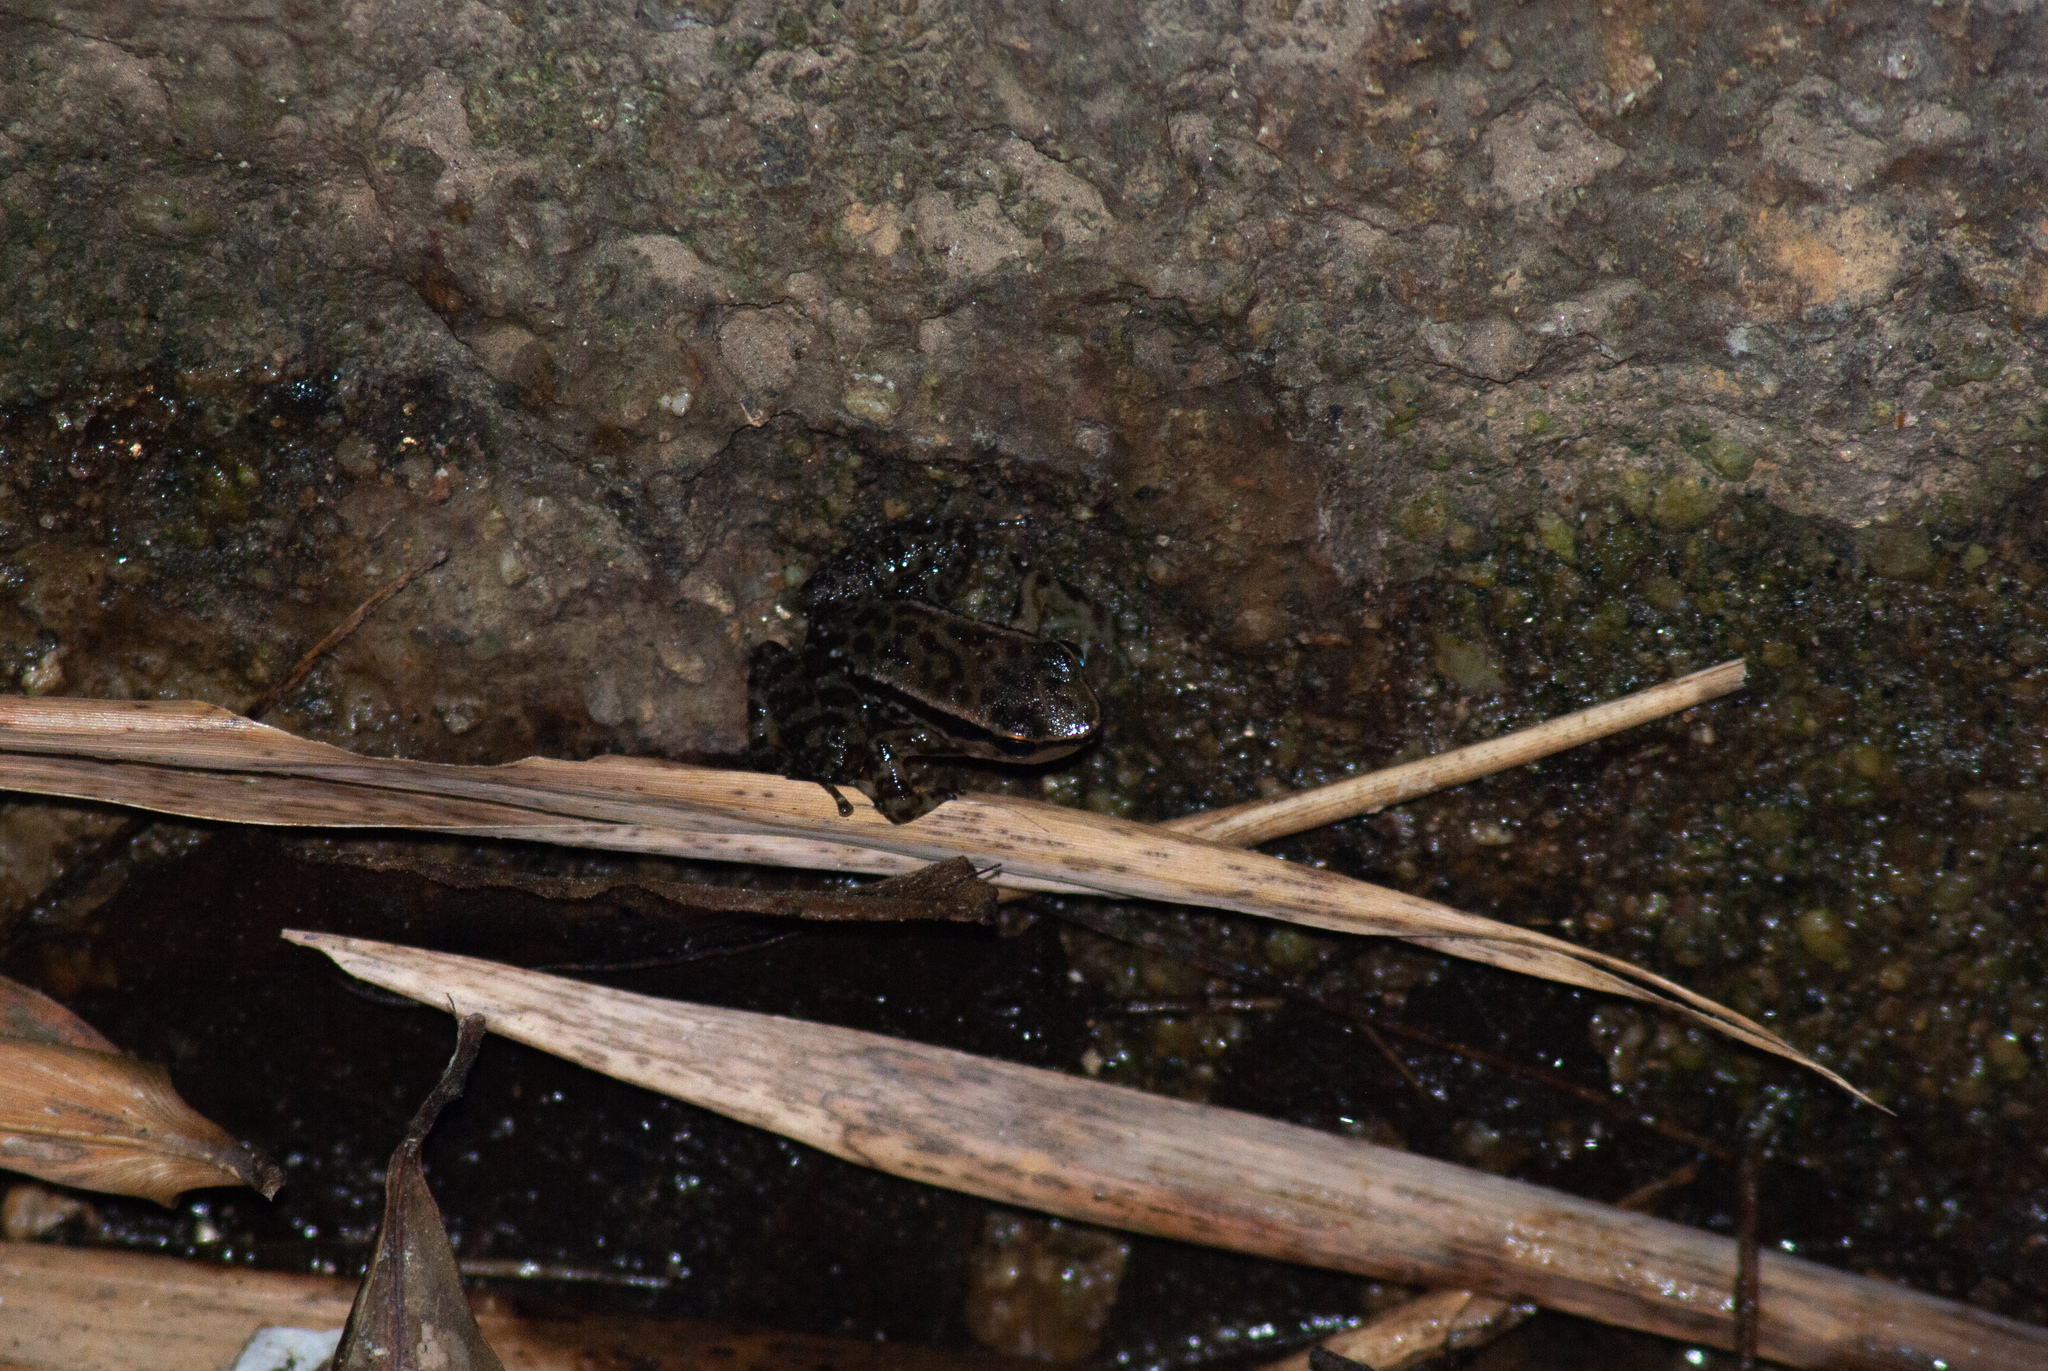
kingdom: Animalia
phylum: Chordata
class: Amphibia
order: Anura
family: Dendrobatidae
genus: Colostethus
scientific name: Colostethus ruthveni
